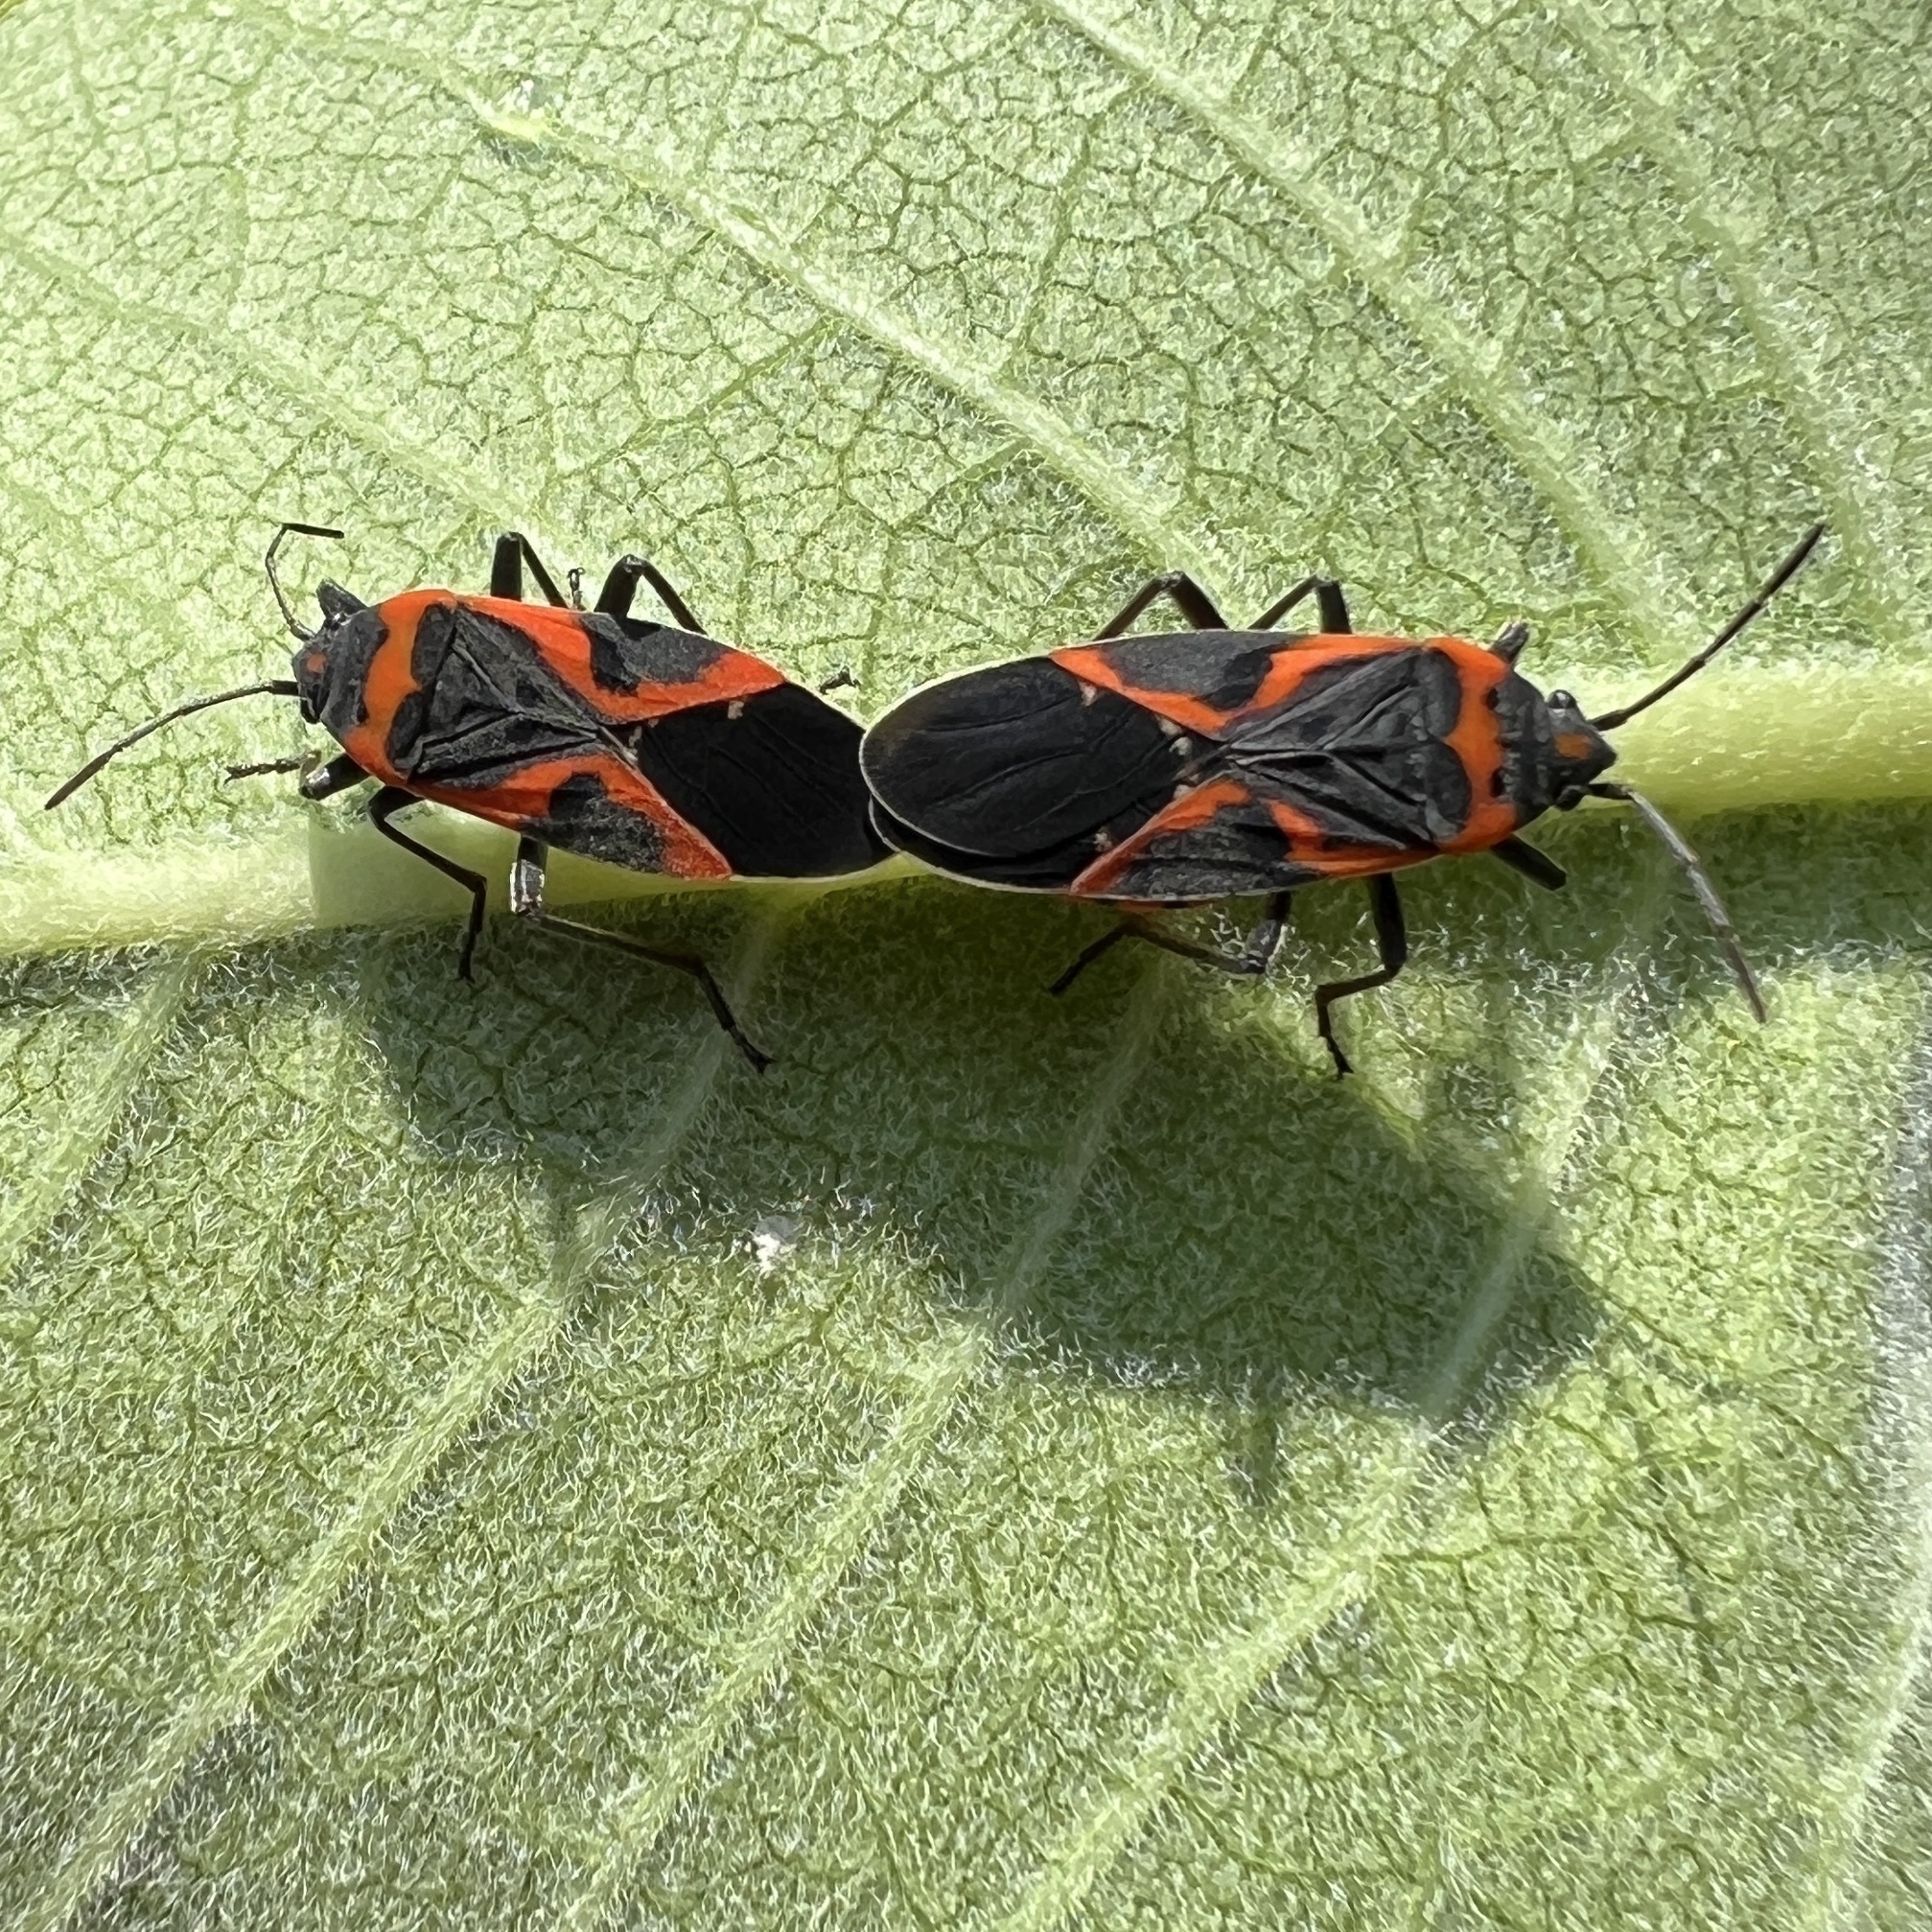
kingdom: Animalia
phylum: Arthropoda
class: Insecta
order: Hemiptera
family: Lygaeidae
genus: Lygaeus
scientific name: Lygaeus kalmii
